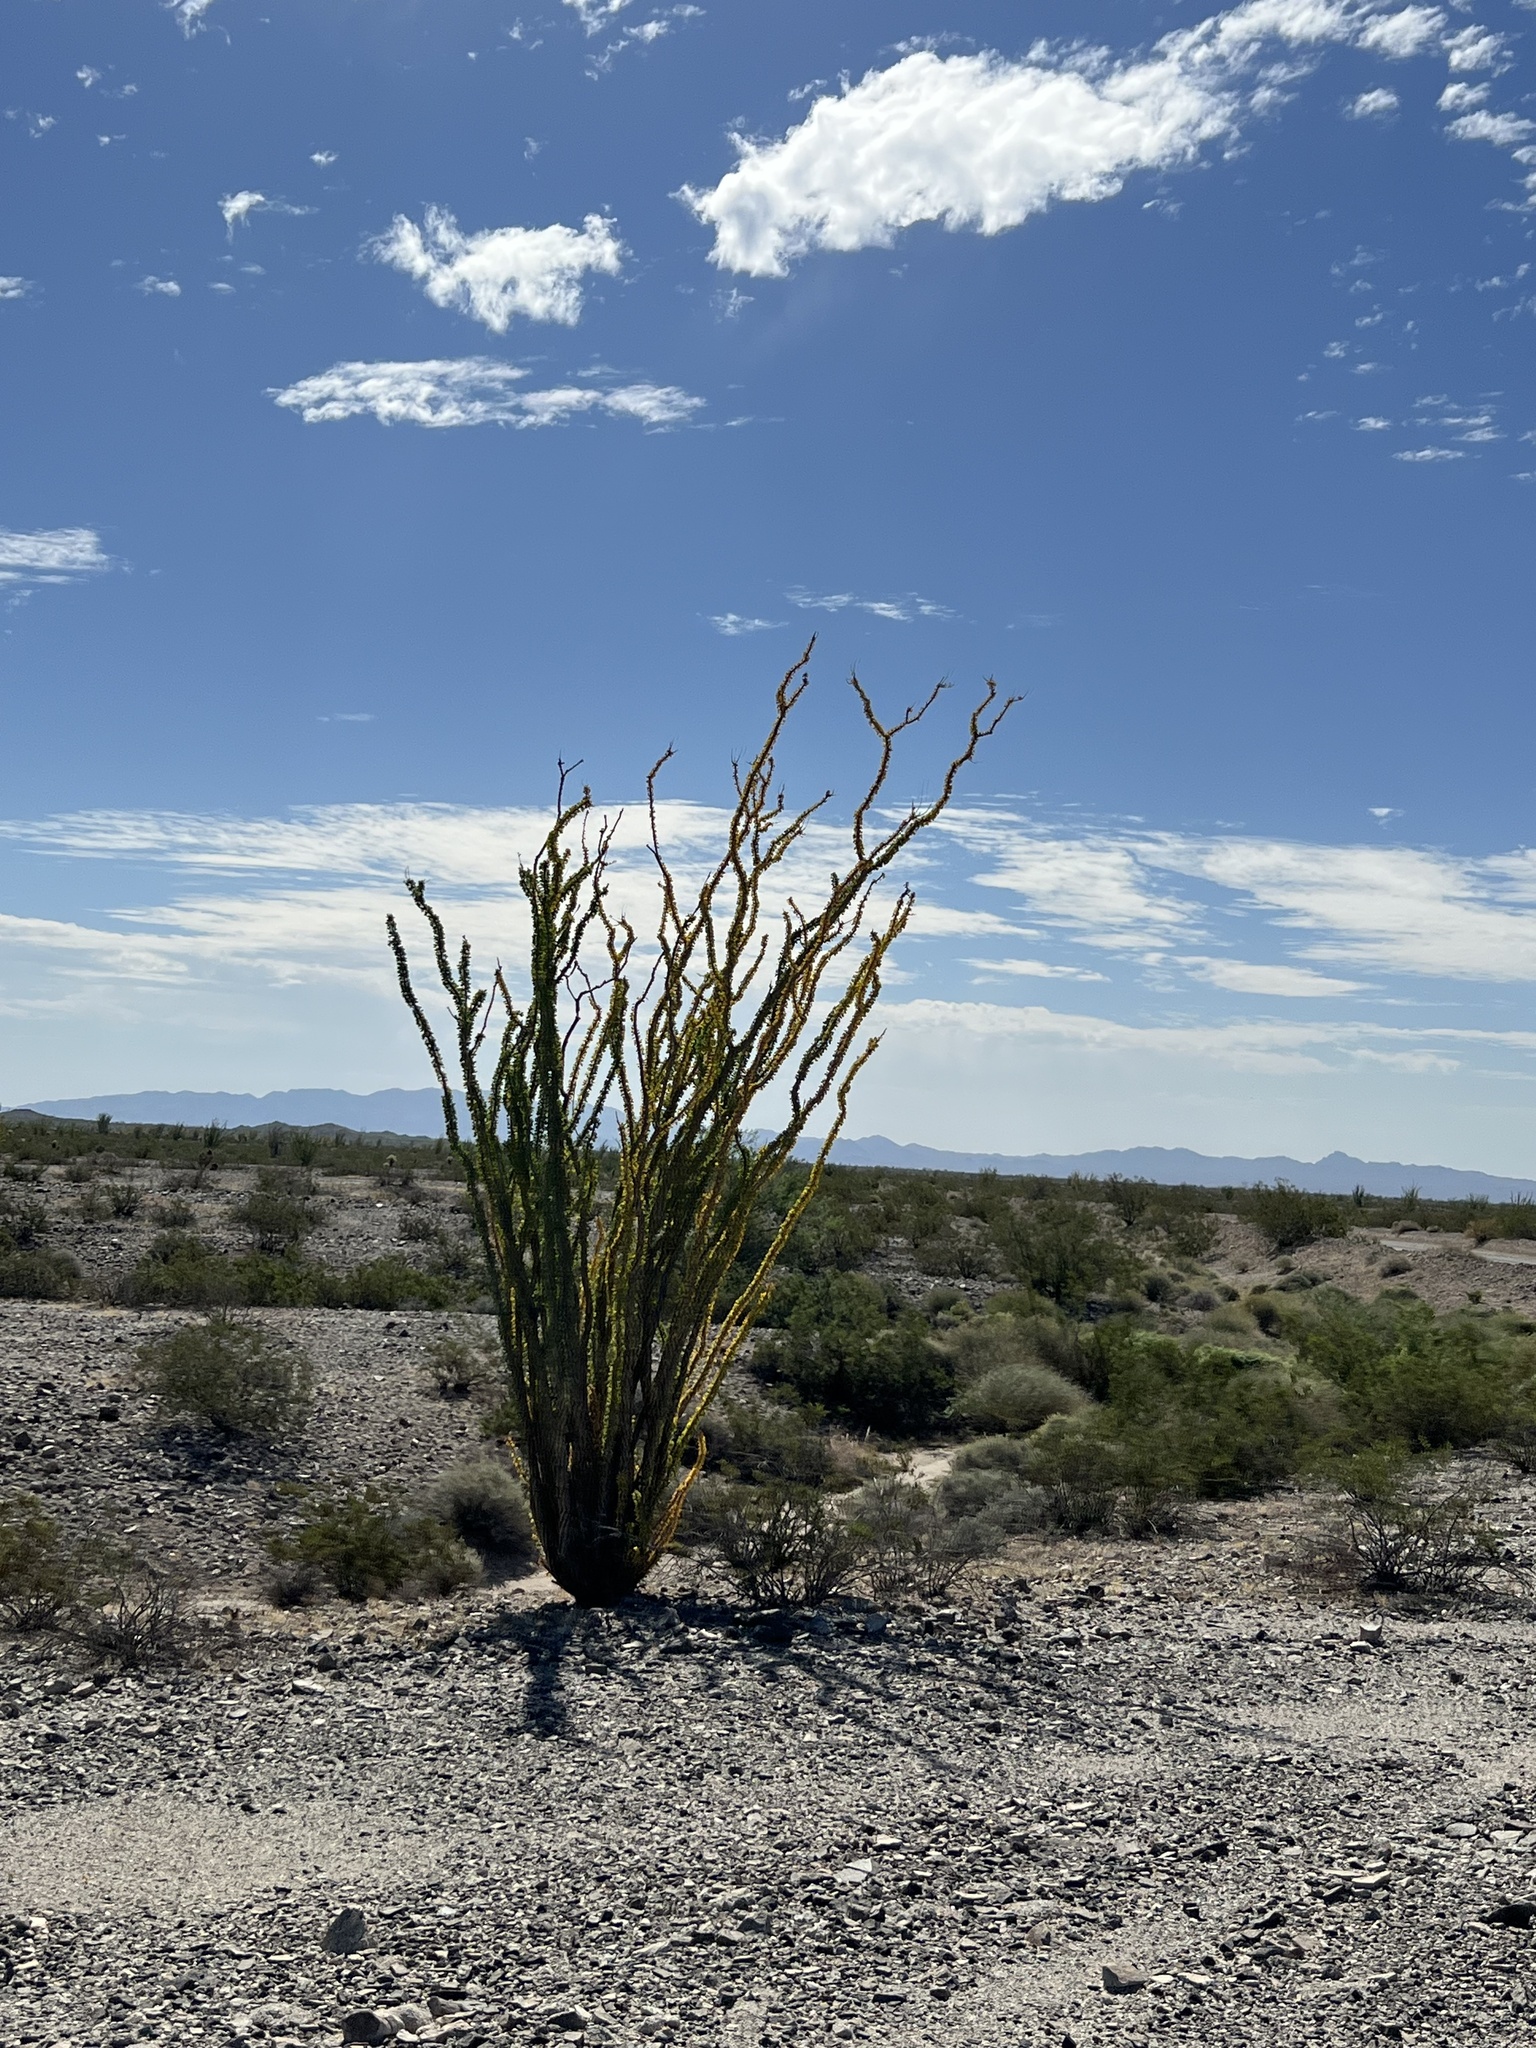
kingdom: Plantae
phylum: Tracheophyta
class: Magnoliopsida
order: Ericales
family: Fouquieriaceae
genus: Fouquieria
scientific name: Fouquieria splendens
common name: Vine-cactus
